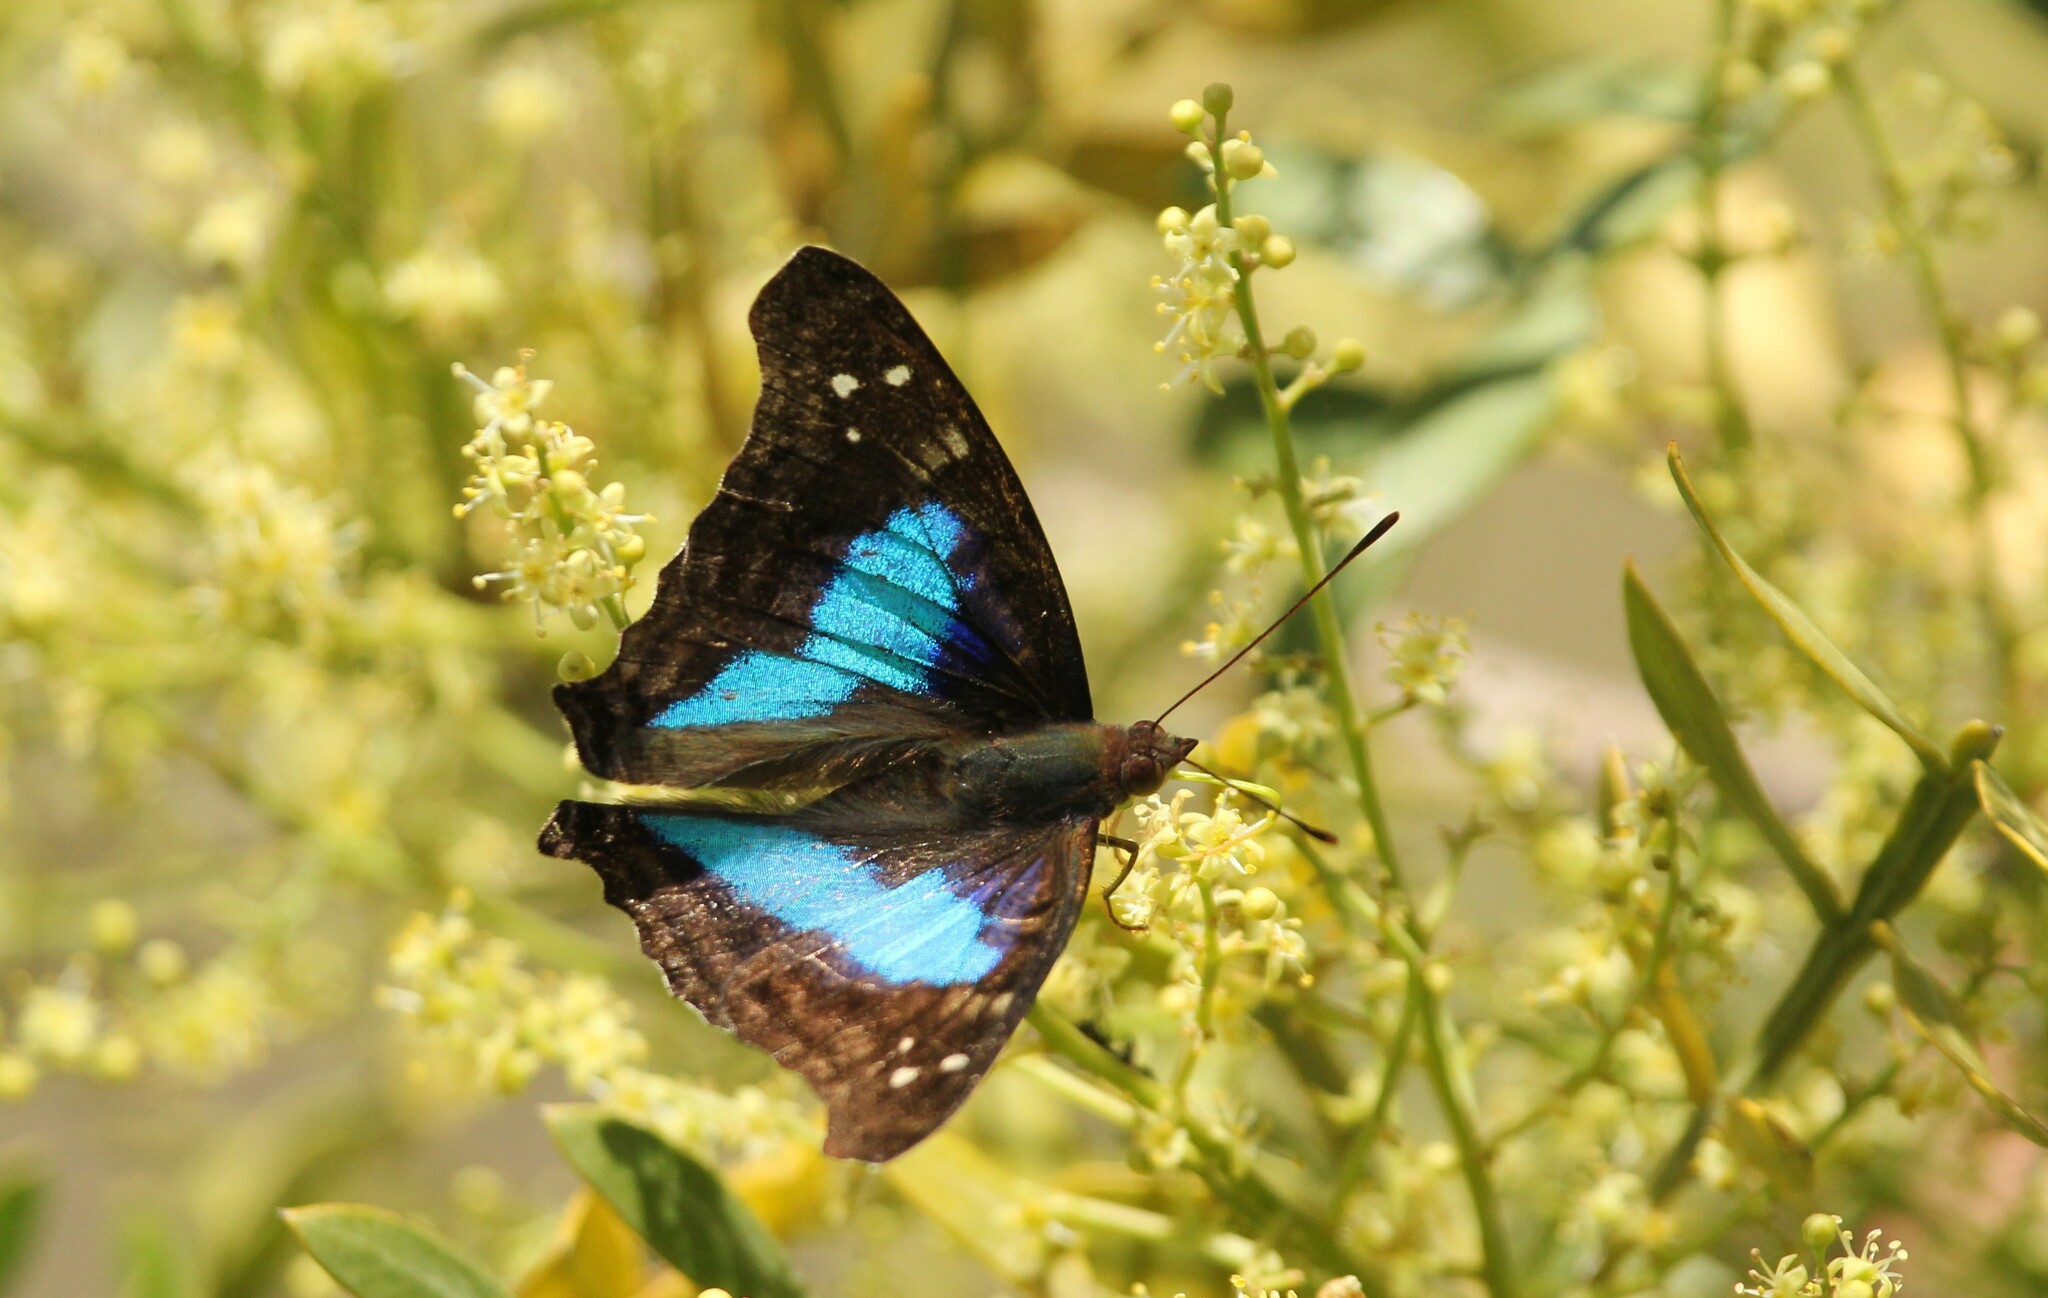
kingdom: Animalia
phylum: Arthropoda
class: Insecta
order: Lepidoptera
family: Nymphalidae
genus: Doxocopa
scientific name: Doxocopa laurentia
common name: Turquoise emperor
